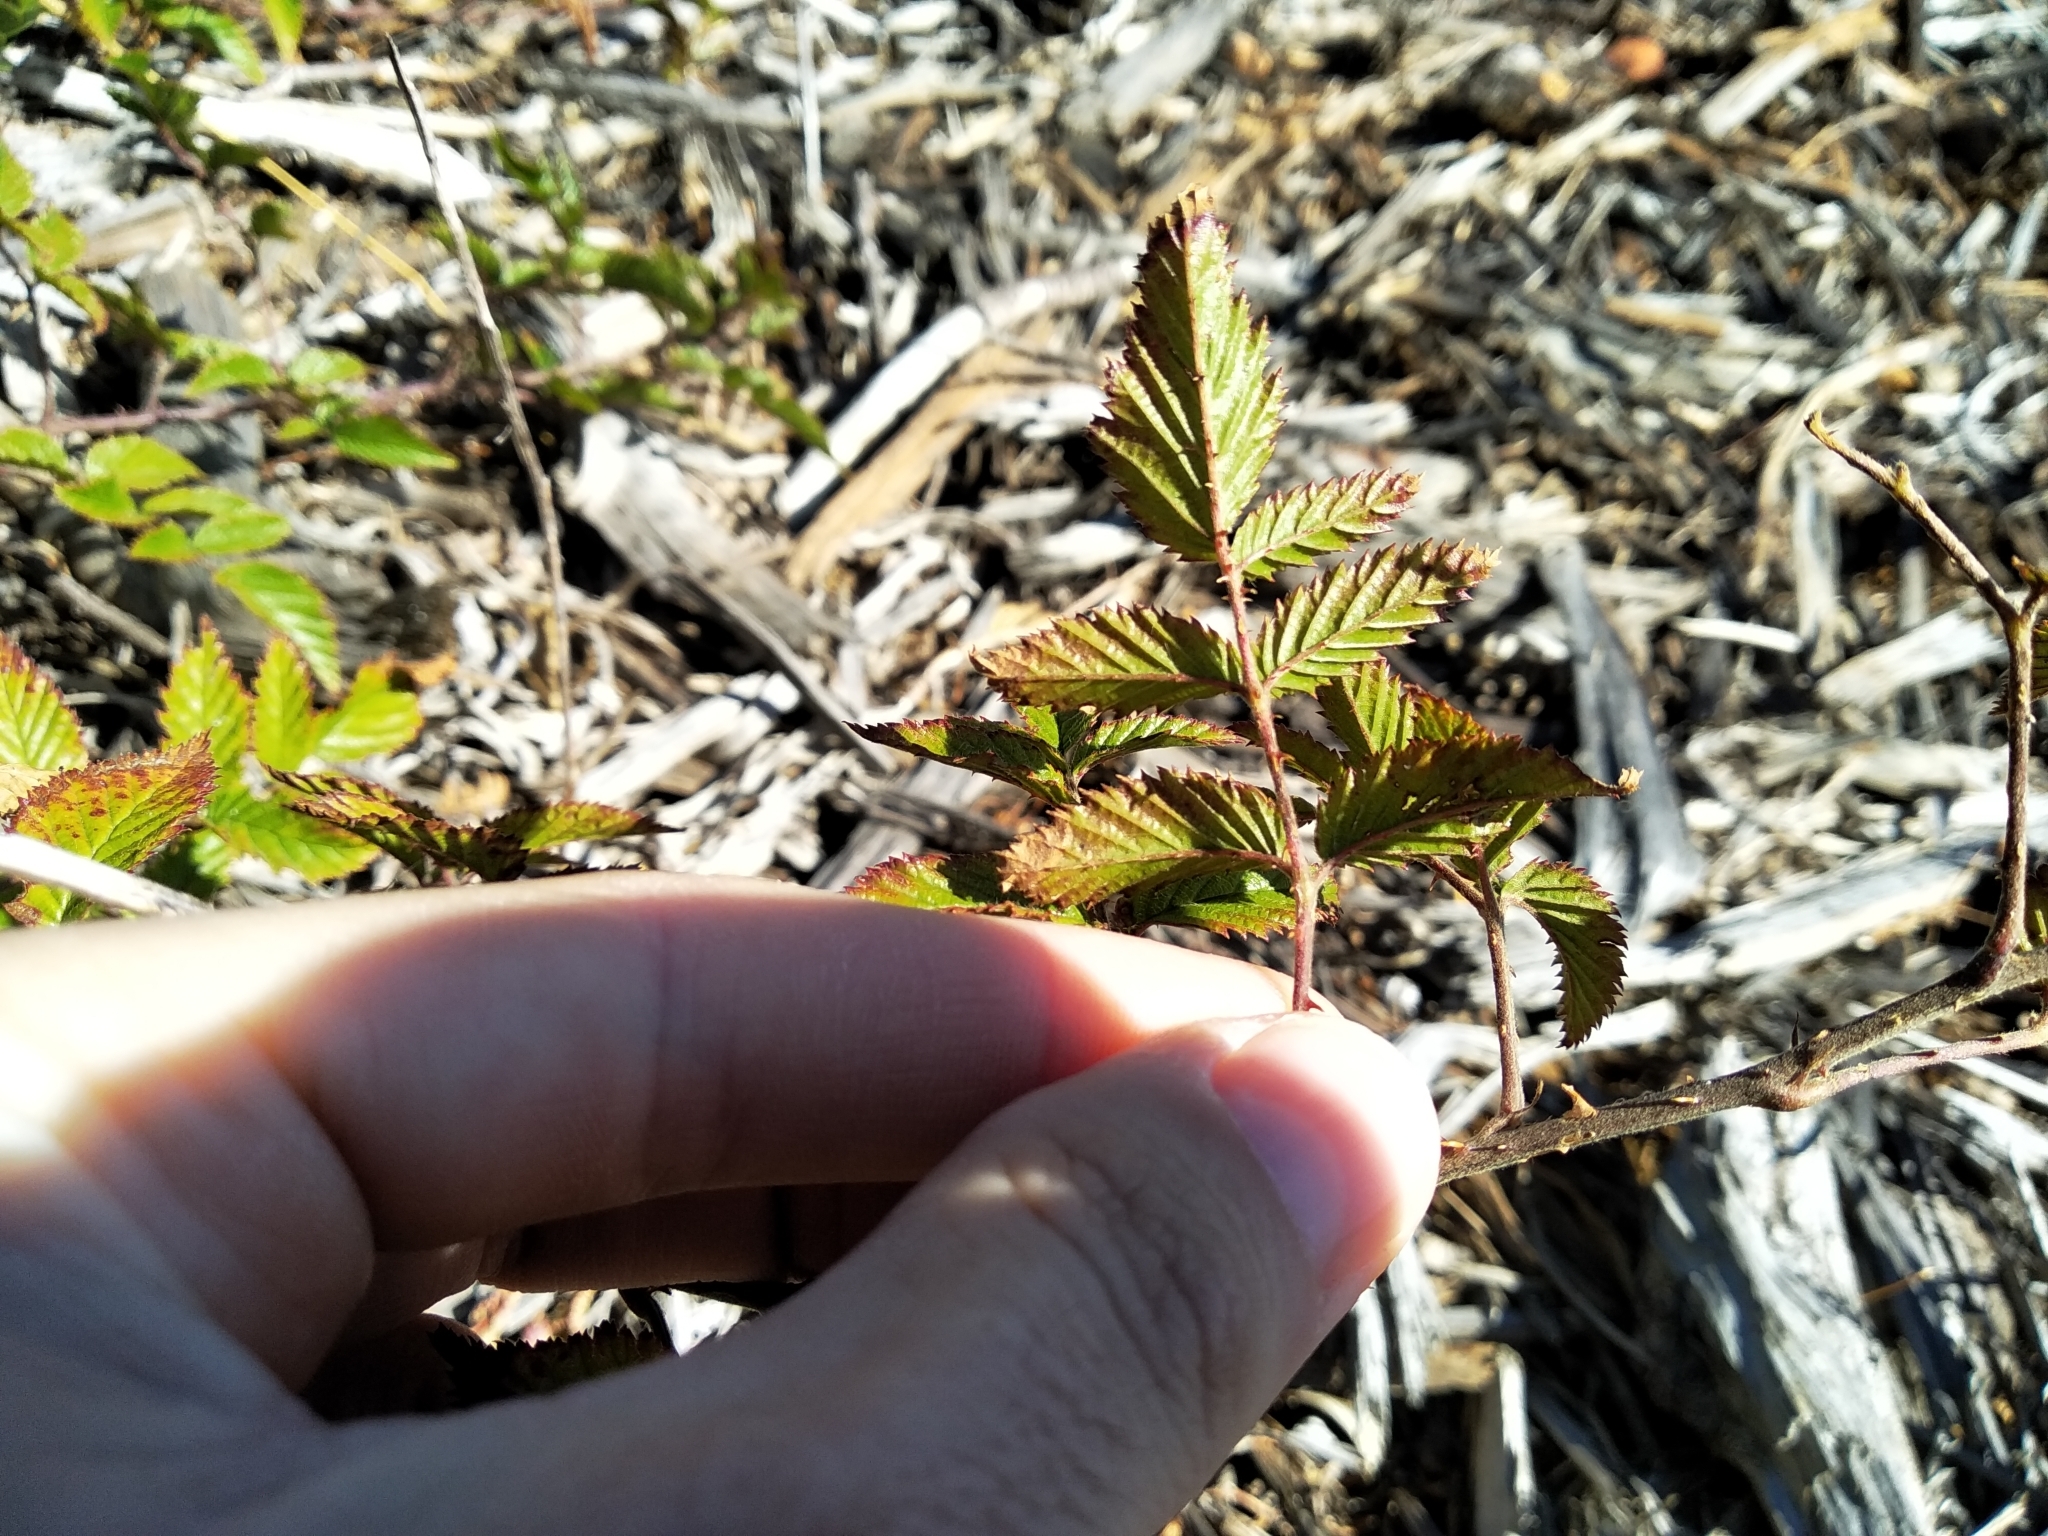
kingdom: Plantae
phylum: Tracheophyta
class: Magnoliopsida
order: Rosales
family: Rosaceae
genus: Rubus
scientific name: Rubus pinnatus
